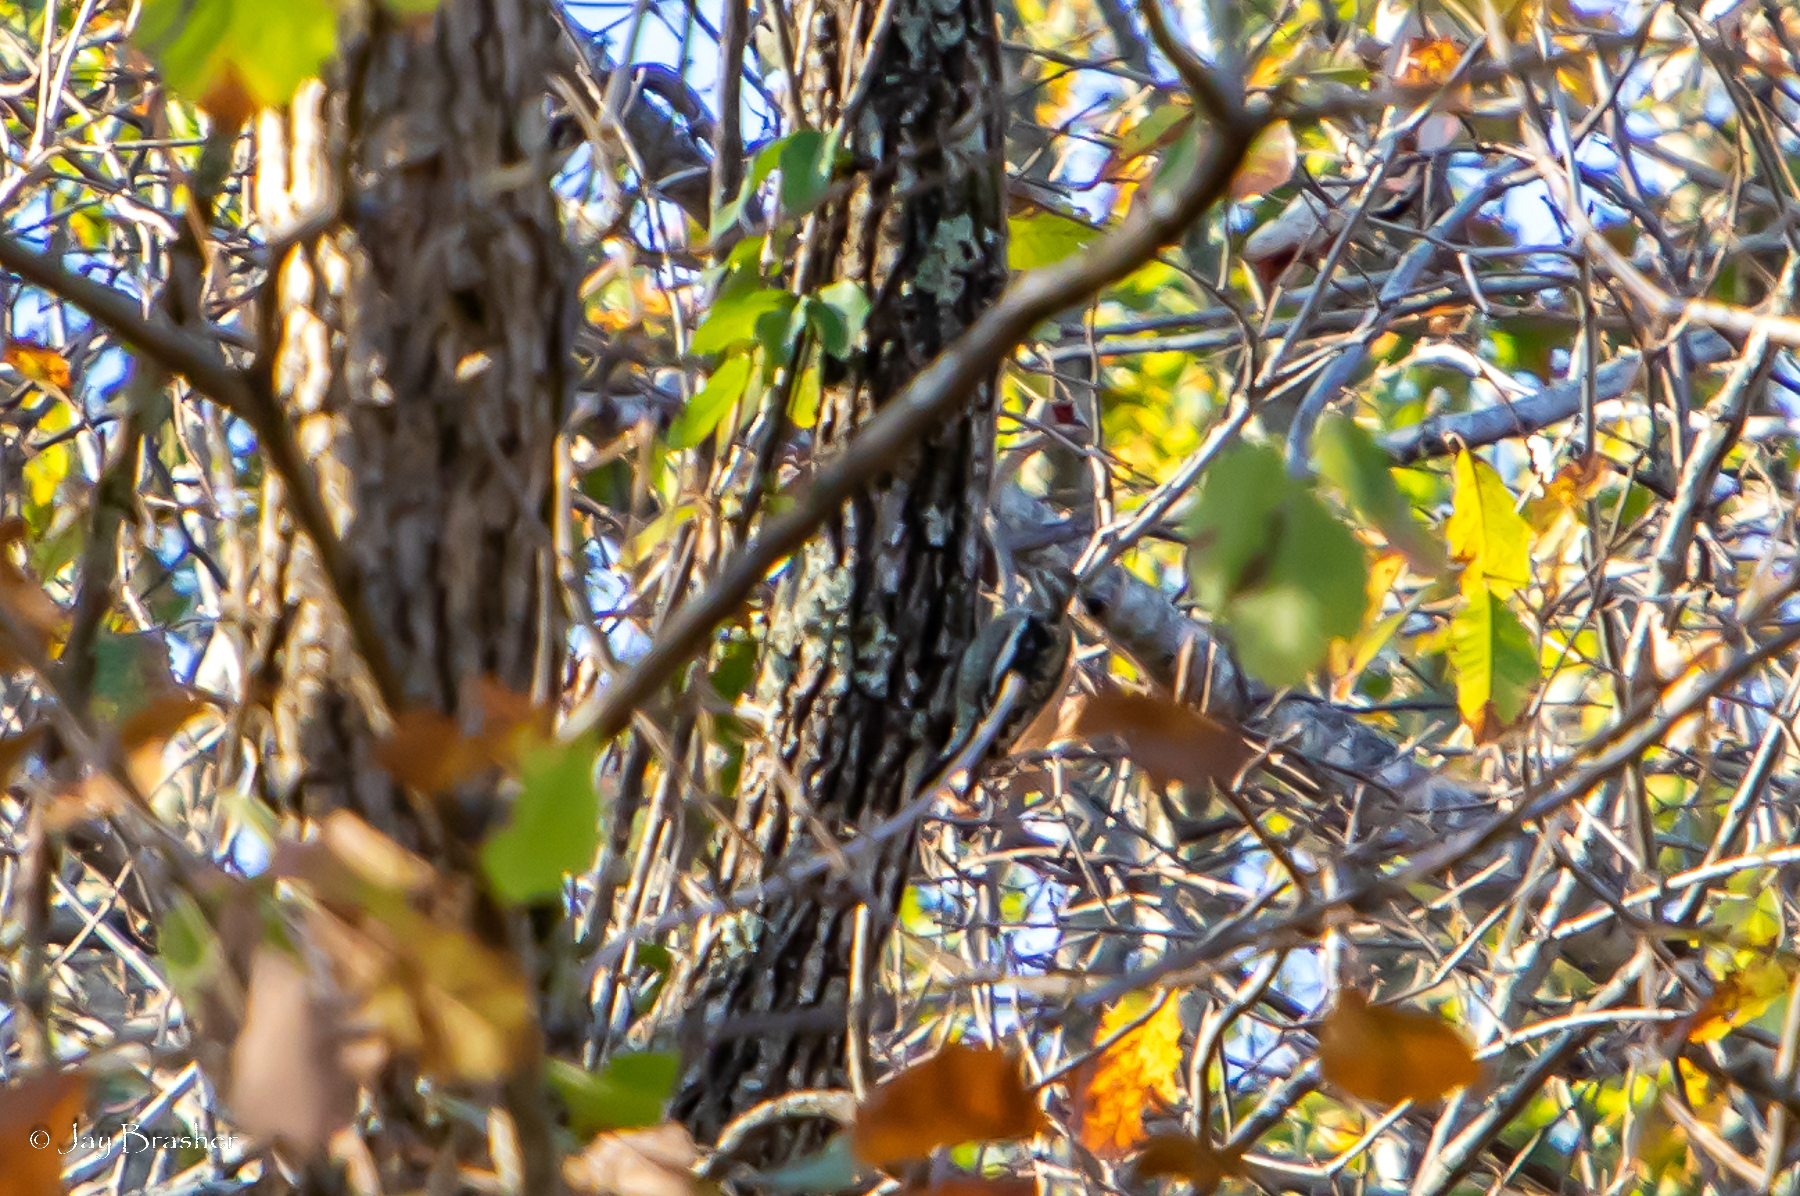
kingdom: Animalia
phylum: Chordata
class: Aves
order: Piciformes
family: Picidae
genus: Sphyrapicus
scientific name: Sphyrapicus varius
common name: Yellow-bellied sapsucker
